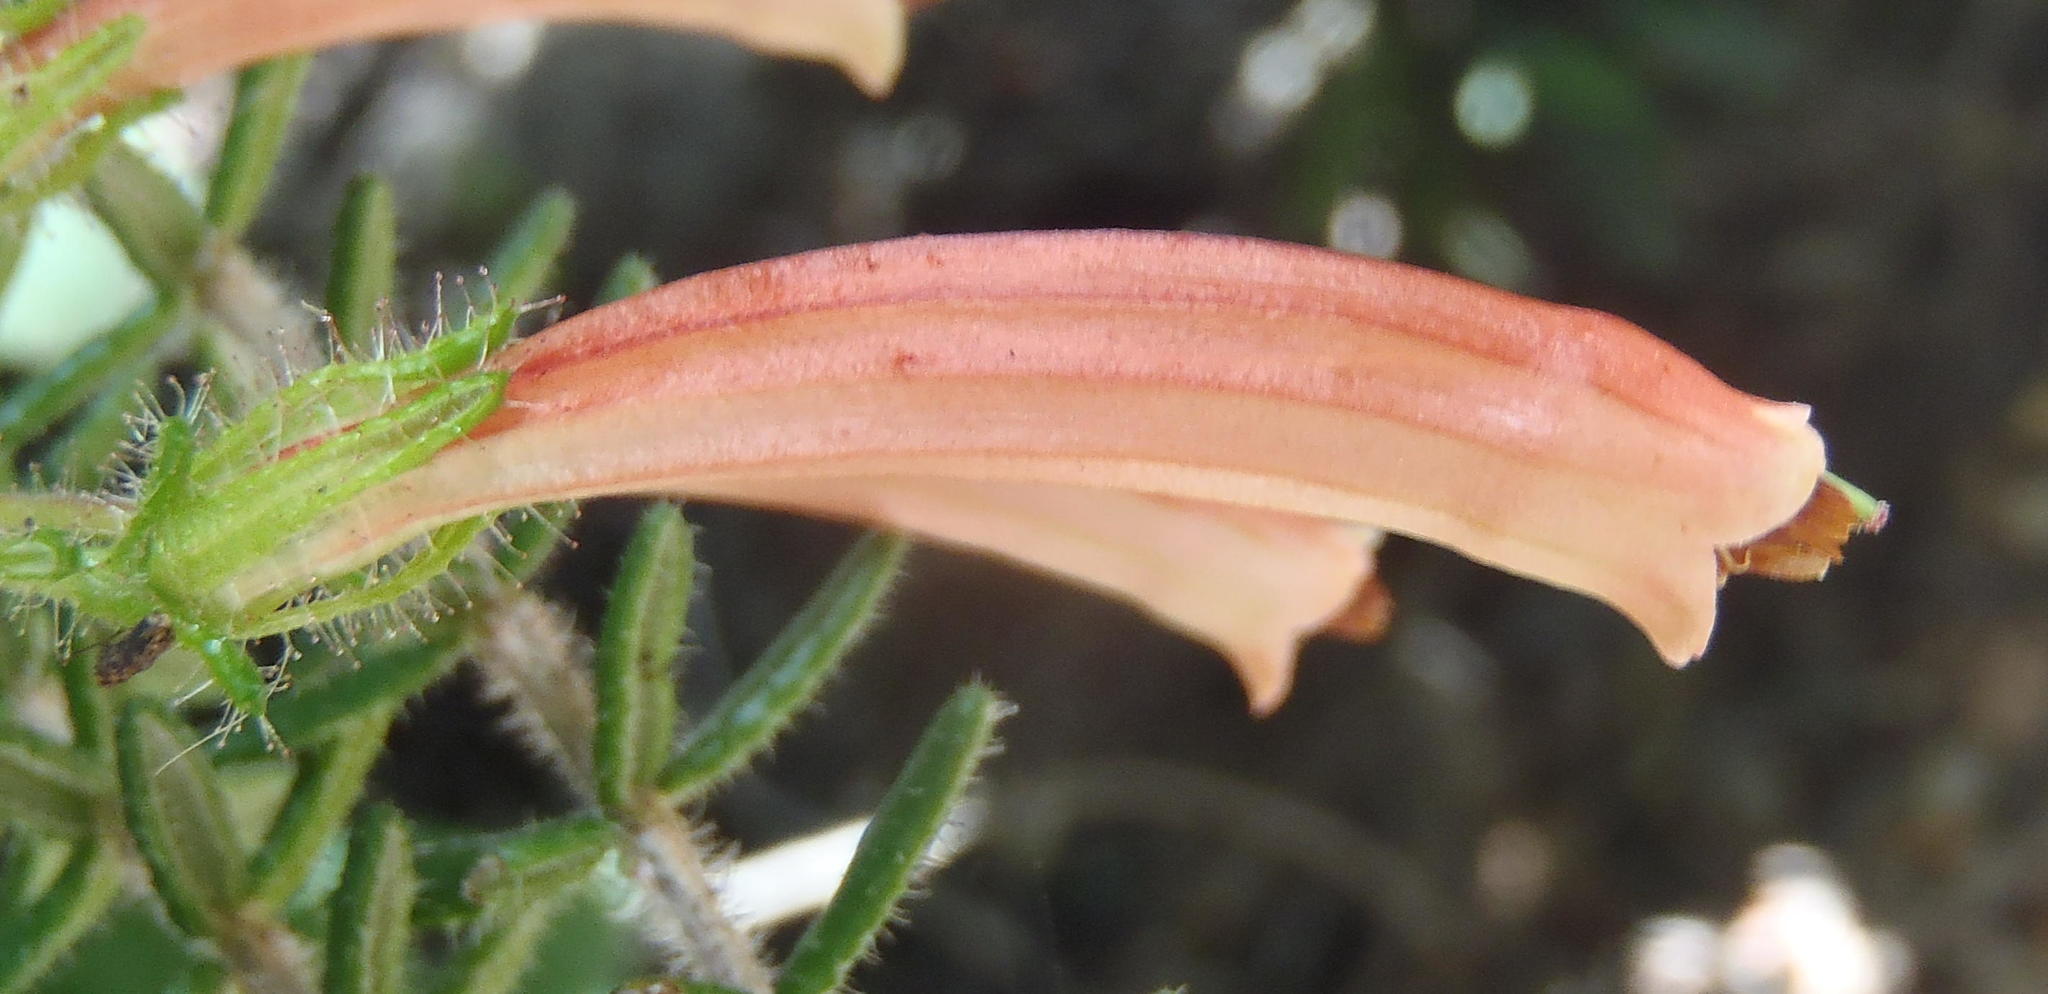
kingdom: Plantae
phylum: Tracheophyta
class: Magnoliopsida
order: Ericales
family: Ericaceae
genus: Erica
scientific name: Erica glandulosa
